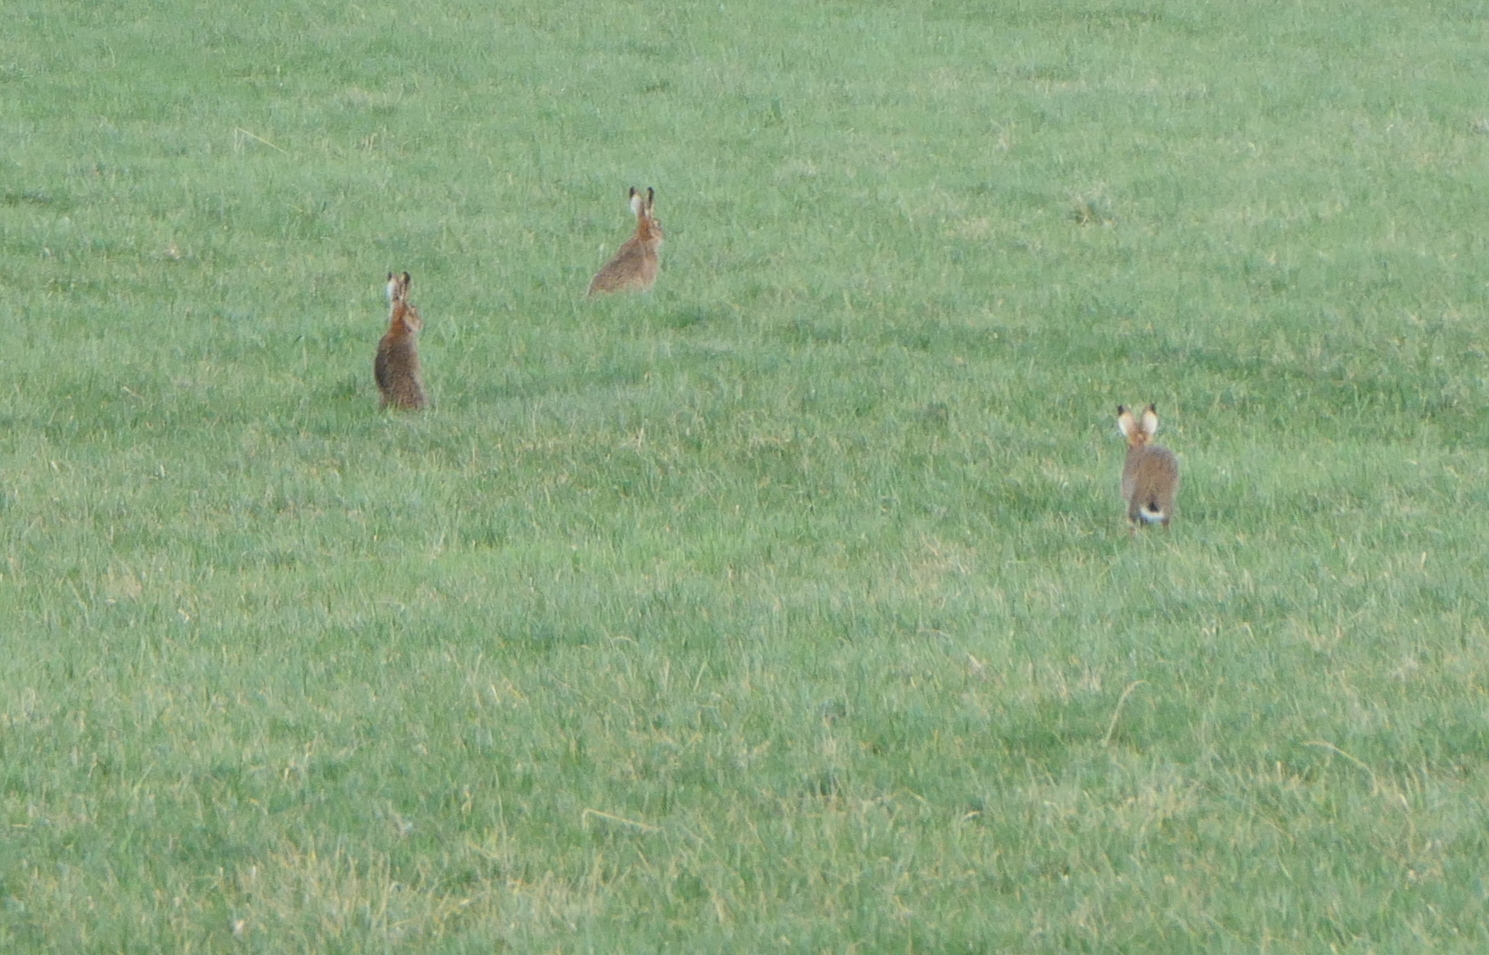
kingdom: Animalia
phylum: Chordata
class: Mammalia
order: Lagomorpha
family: Leporidae
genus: Lepus
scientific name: Lepus europaeus
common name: European hare
